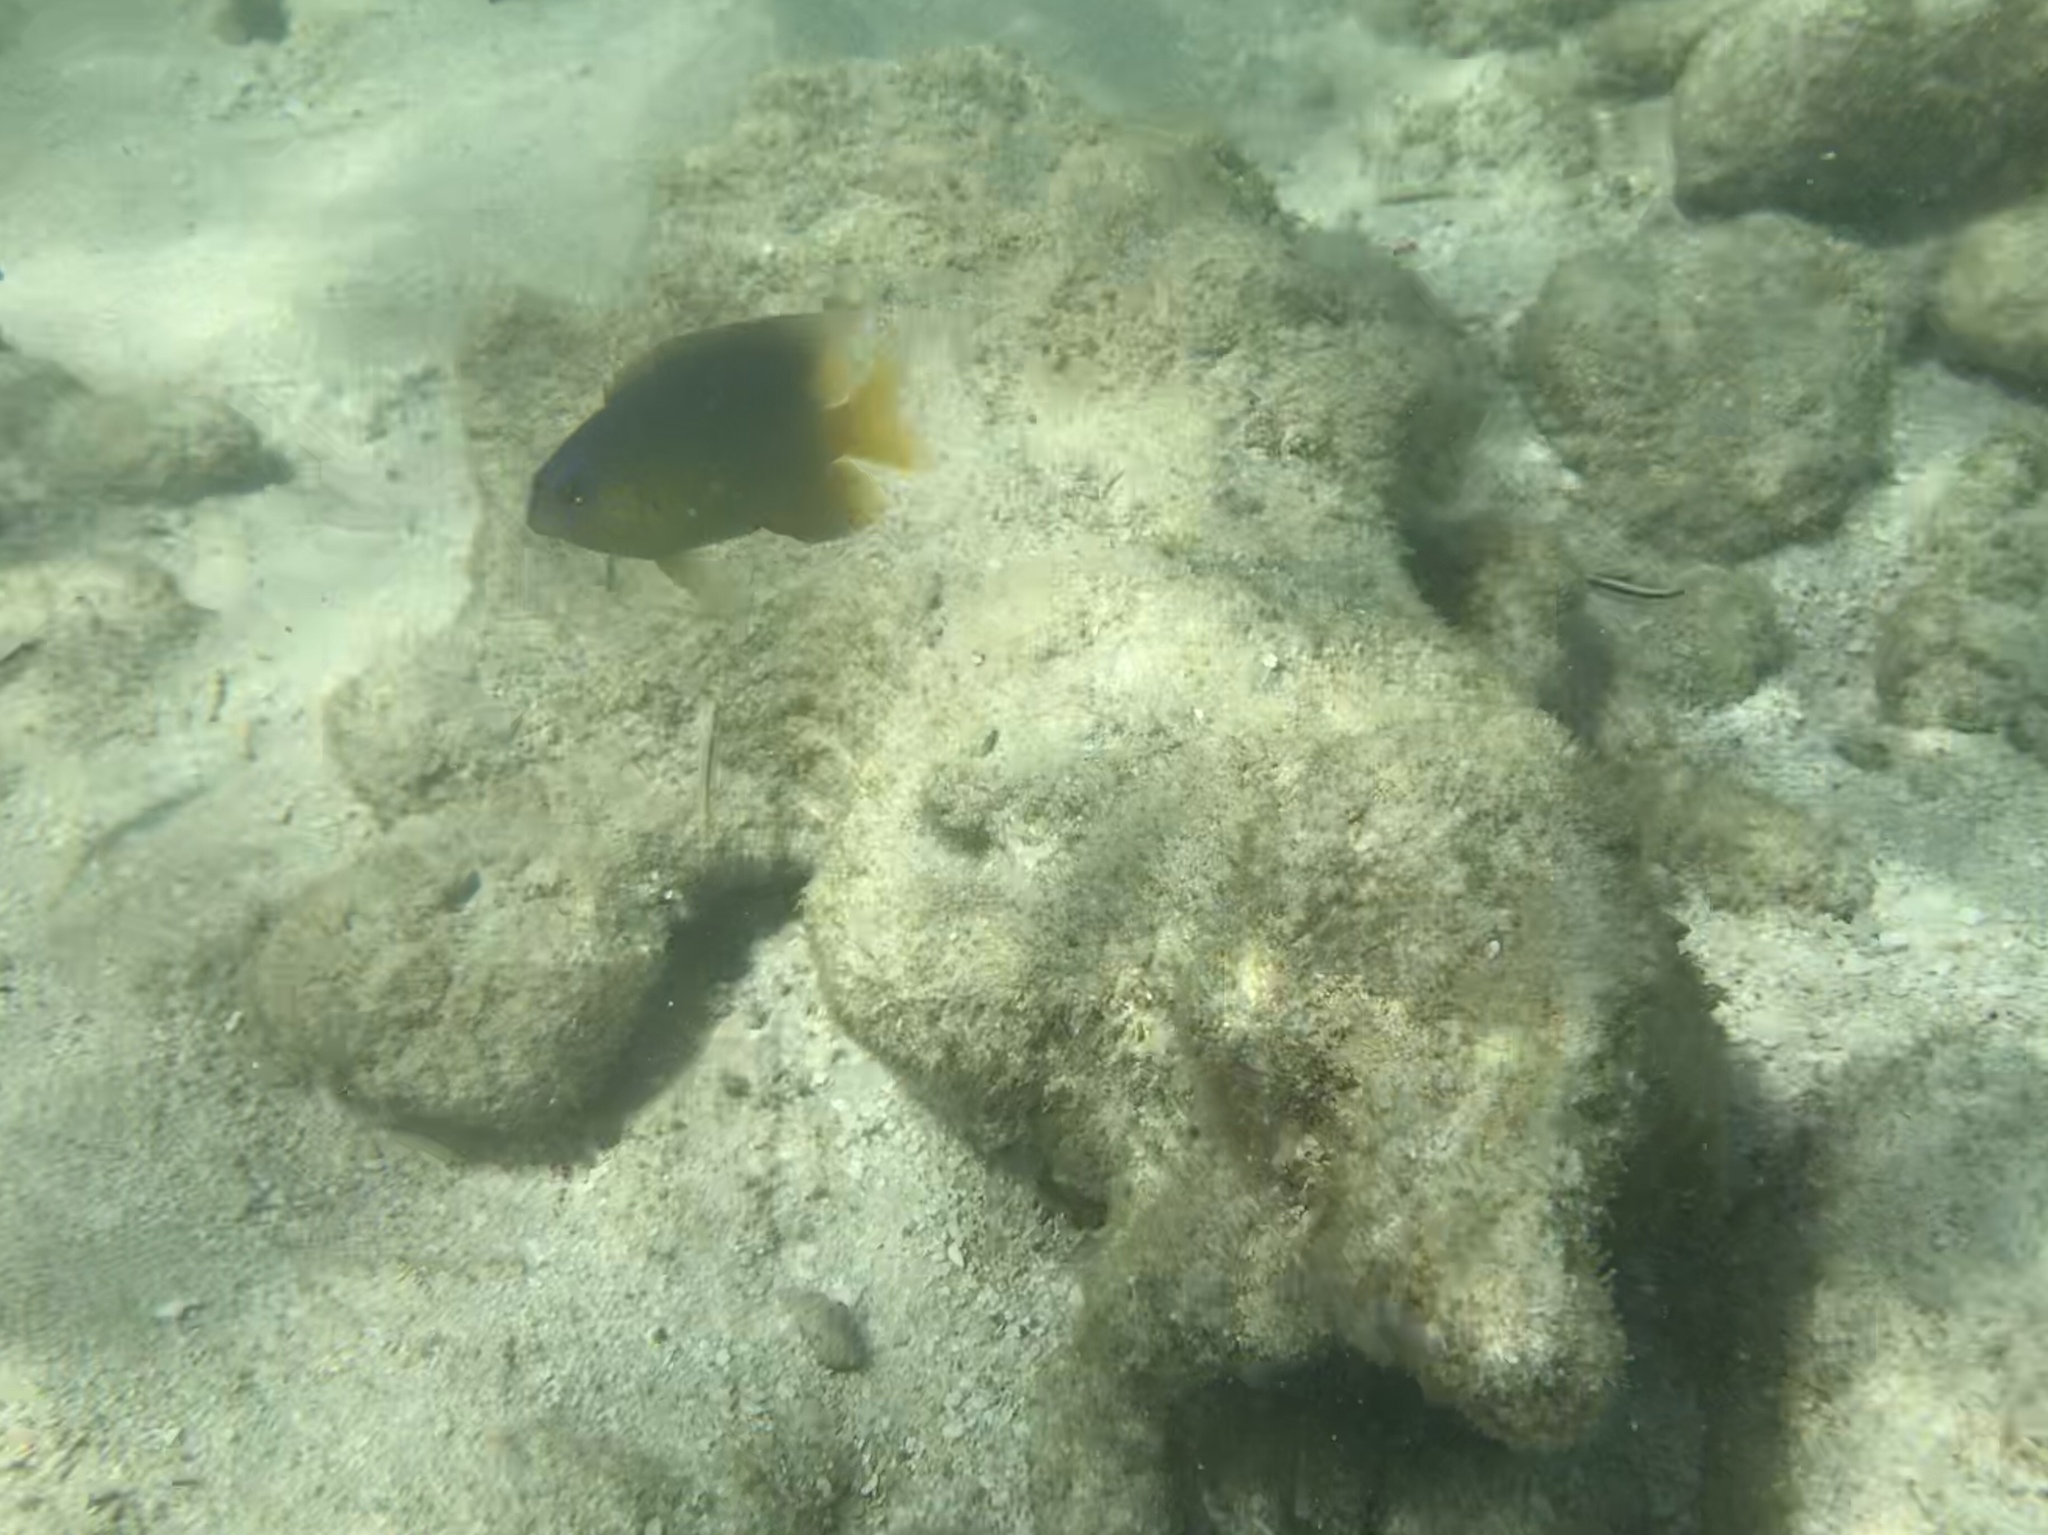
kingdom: Animalia
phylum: Chordata
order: Perciformes
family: Pomacentridae
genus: Stegastes
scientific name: Stegastes leucostictus
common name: Beaugregory
